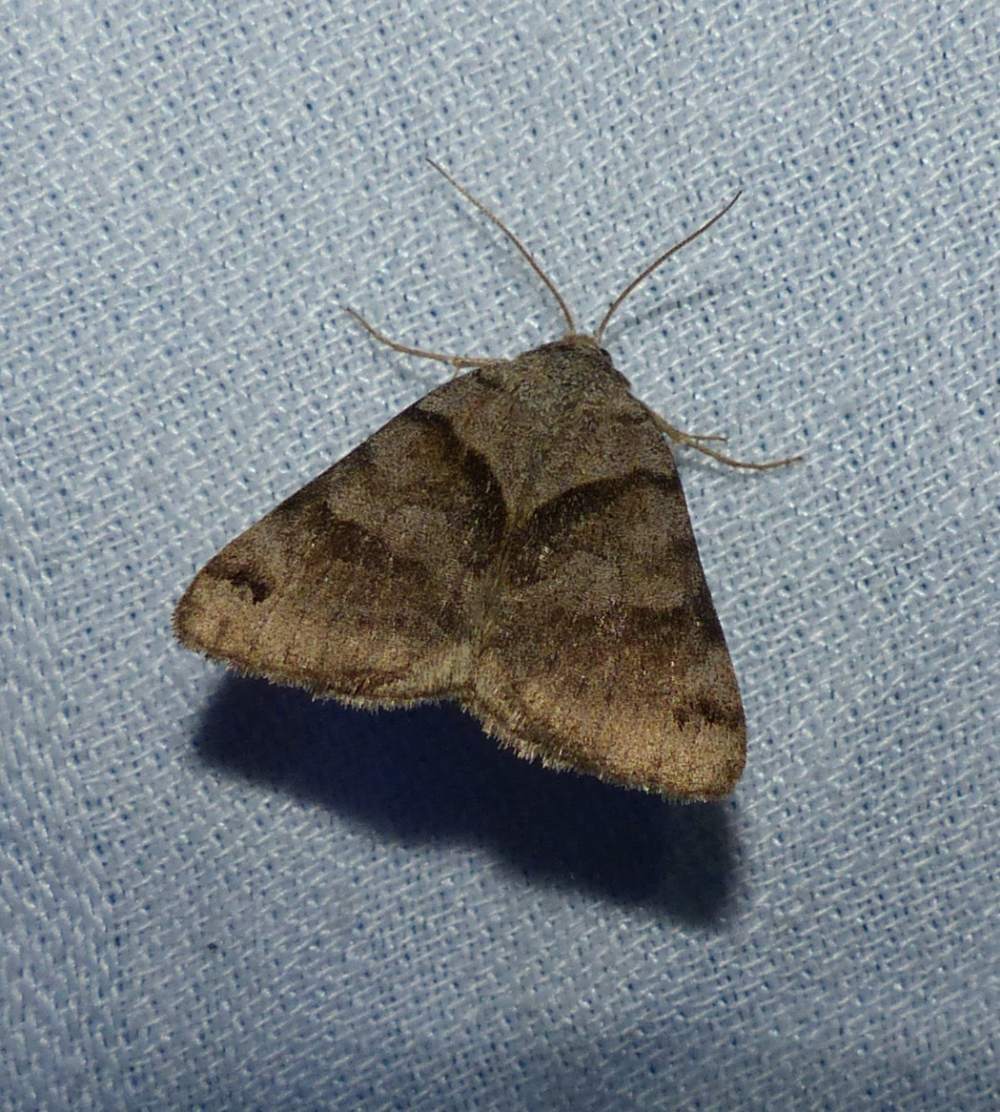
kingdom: Animalia
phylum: Arthropoda
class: Insecta
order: Lepidoptera
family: Erebidae
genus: Caenurgina
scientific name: Caenurgina crassiuscula
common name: Double-barred
